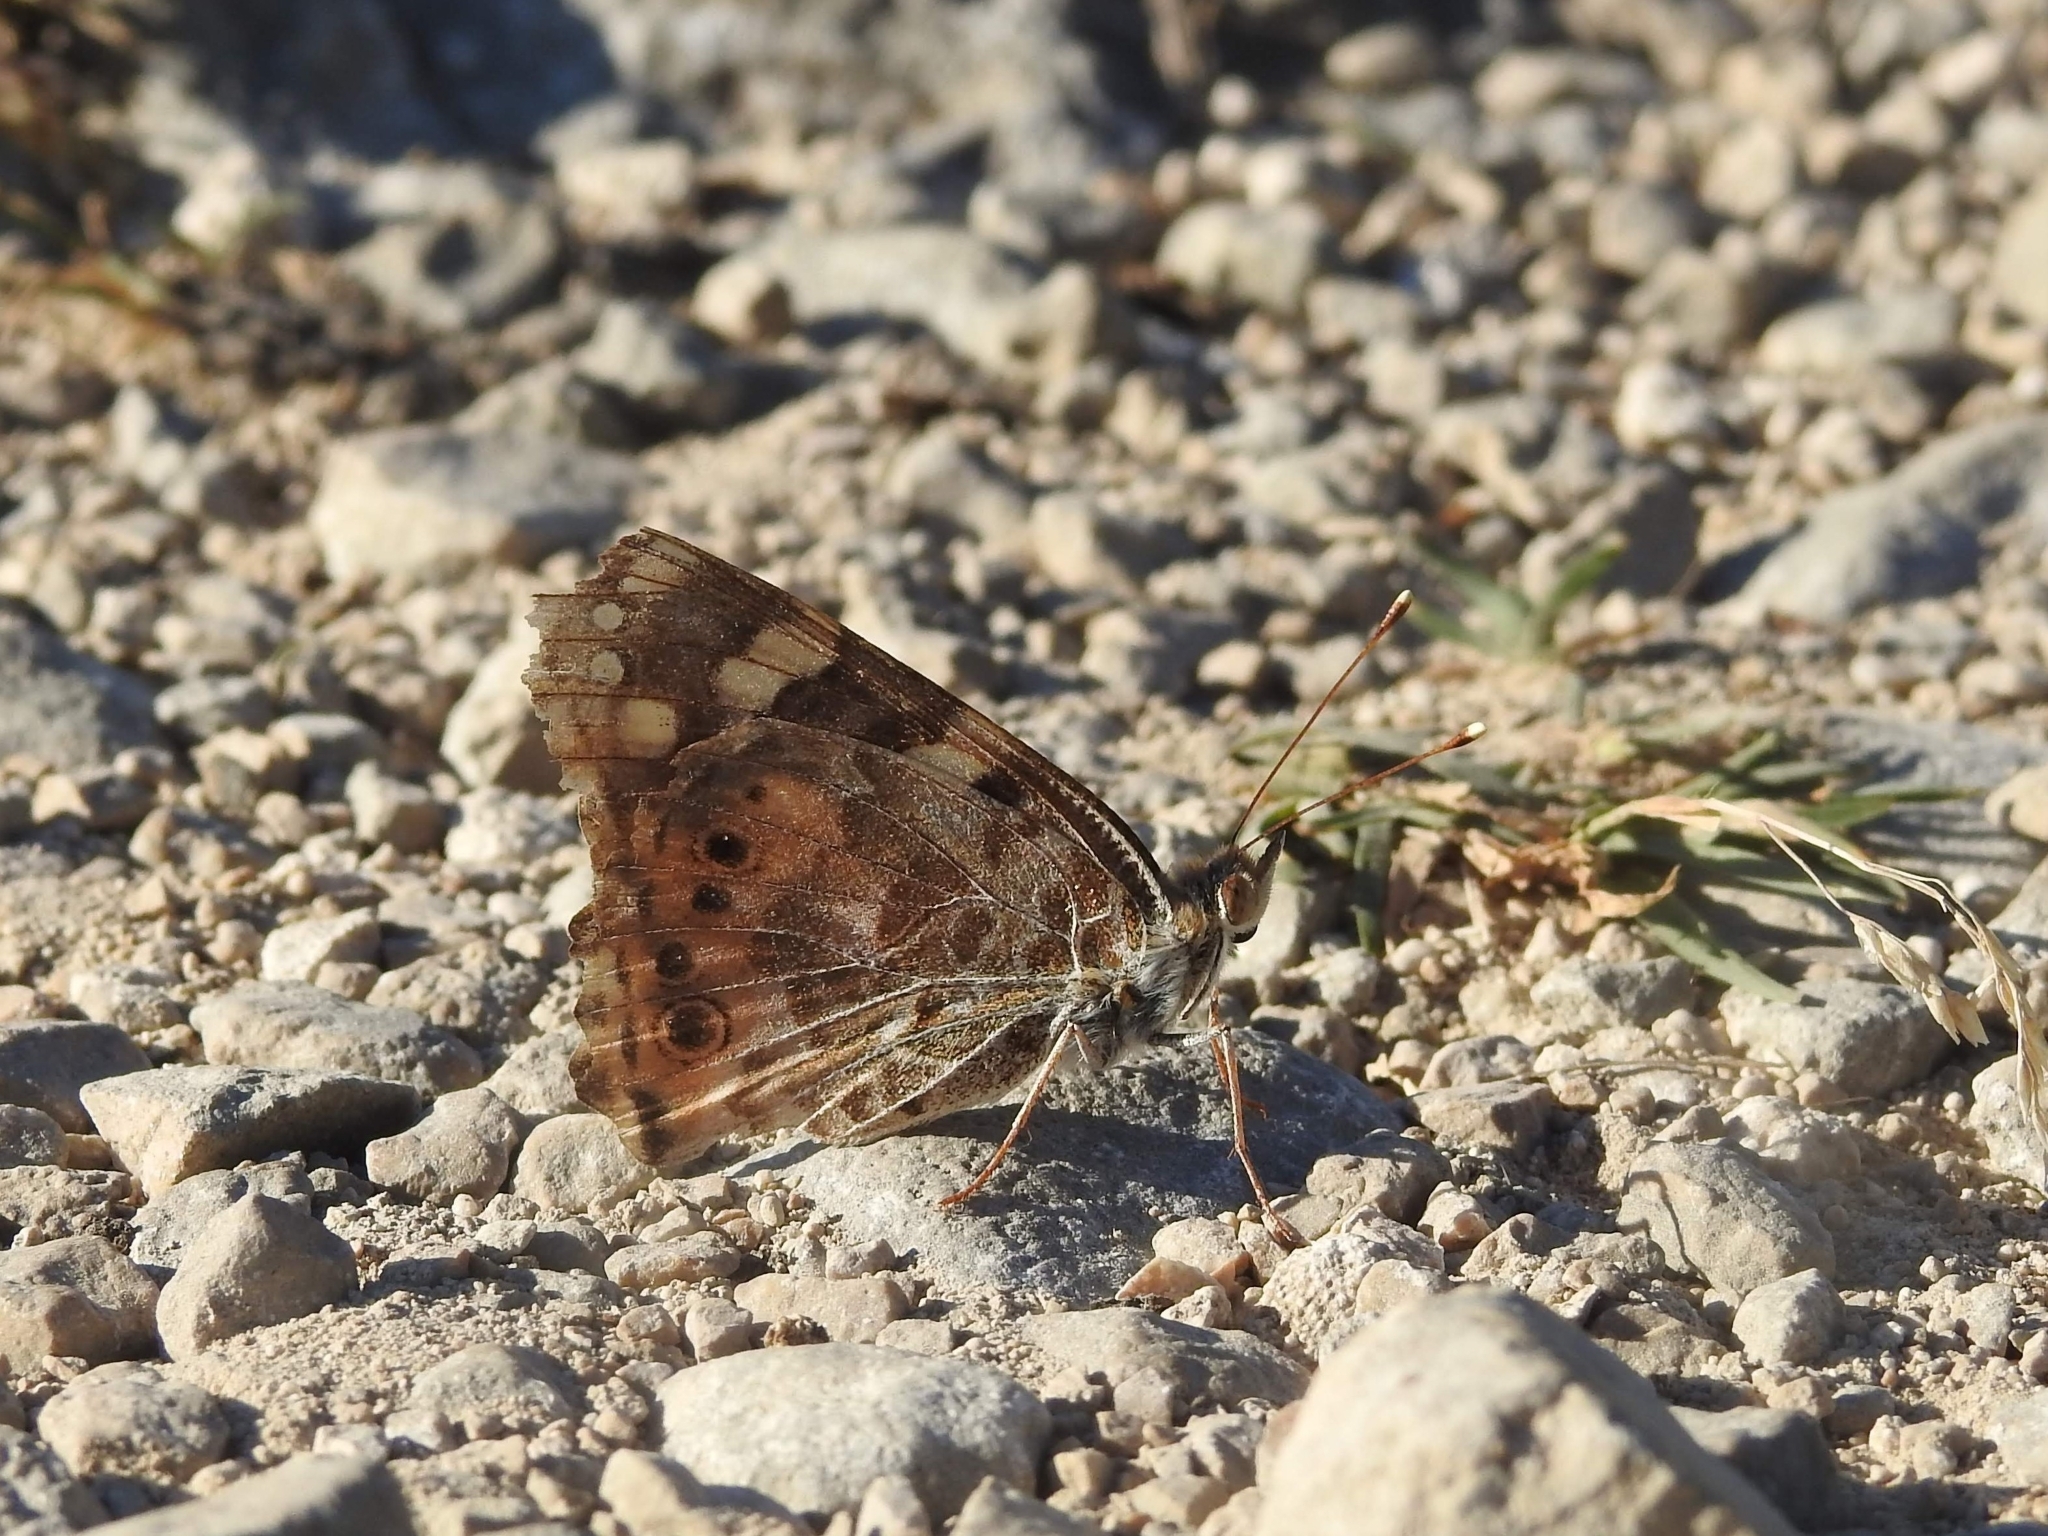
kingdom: Animalia
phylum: Arthropoda
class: Insecta
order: Lepidoptera
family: Nymphalidae
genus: Vanessa
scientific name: Vanessa cardui
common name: Painted lady
